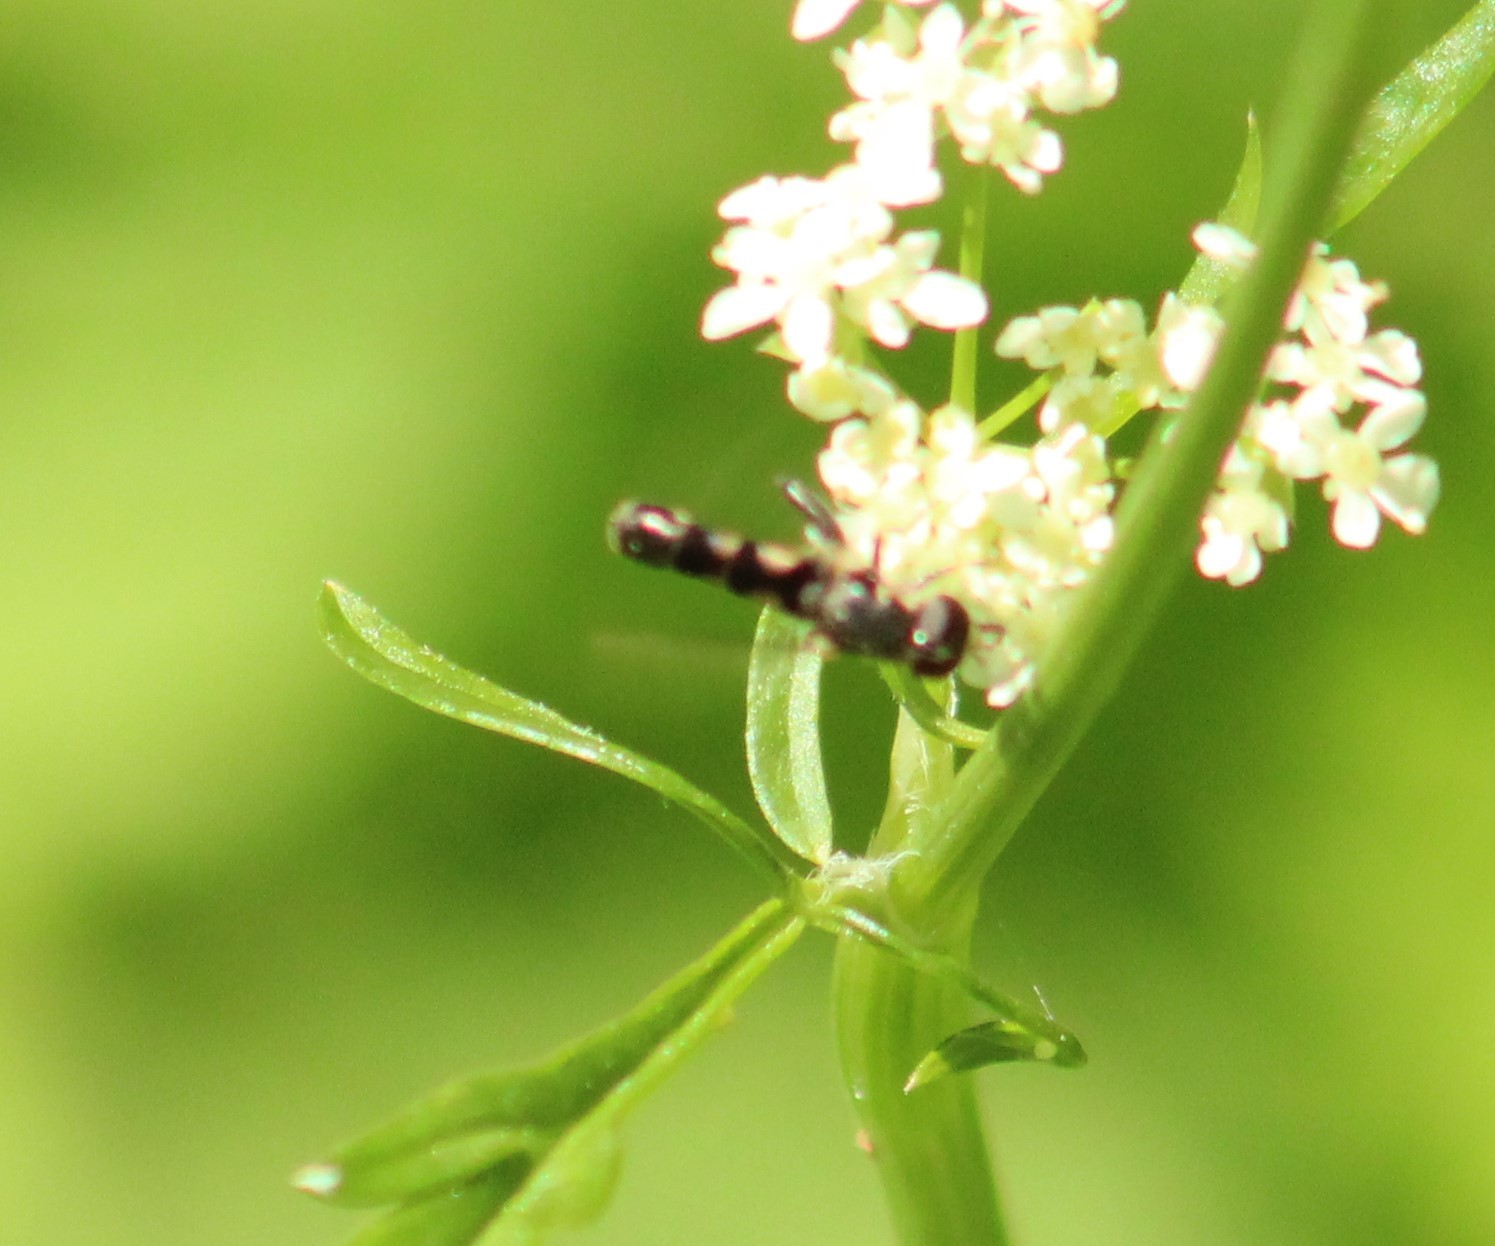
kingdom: Animalia
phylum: Arthropoda
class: Insecta
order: Diptera
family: Syrphidae
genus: Syritta
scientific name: Syritta pipiens
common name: Hover fly
